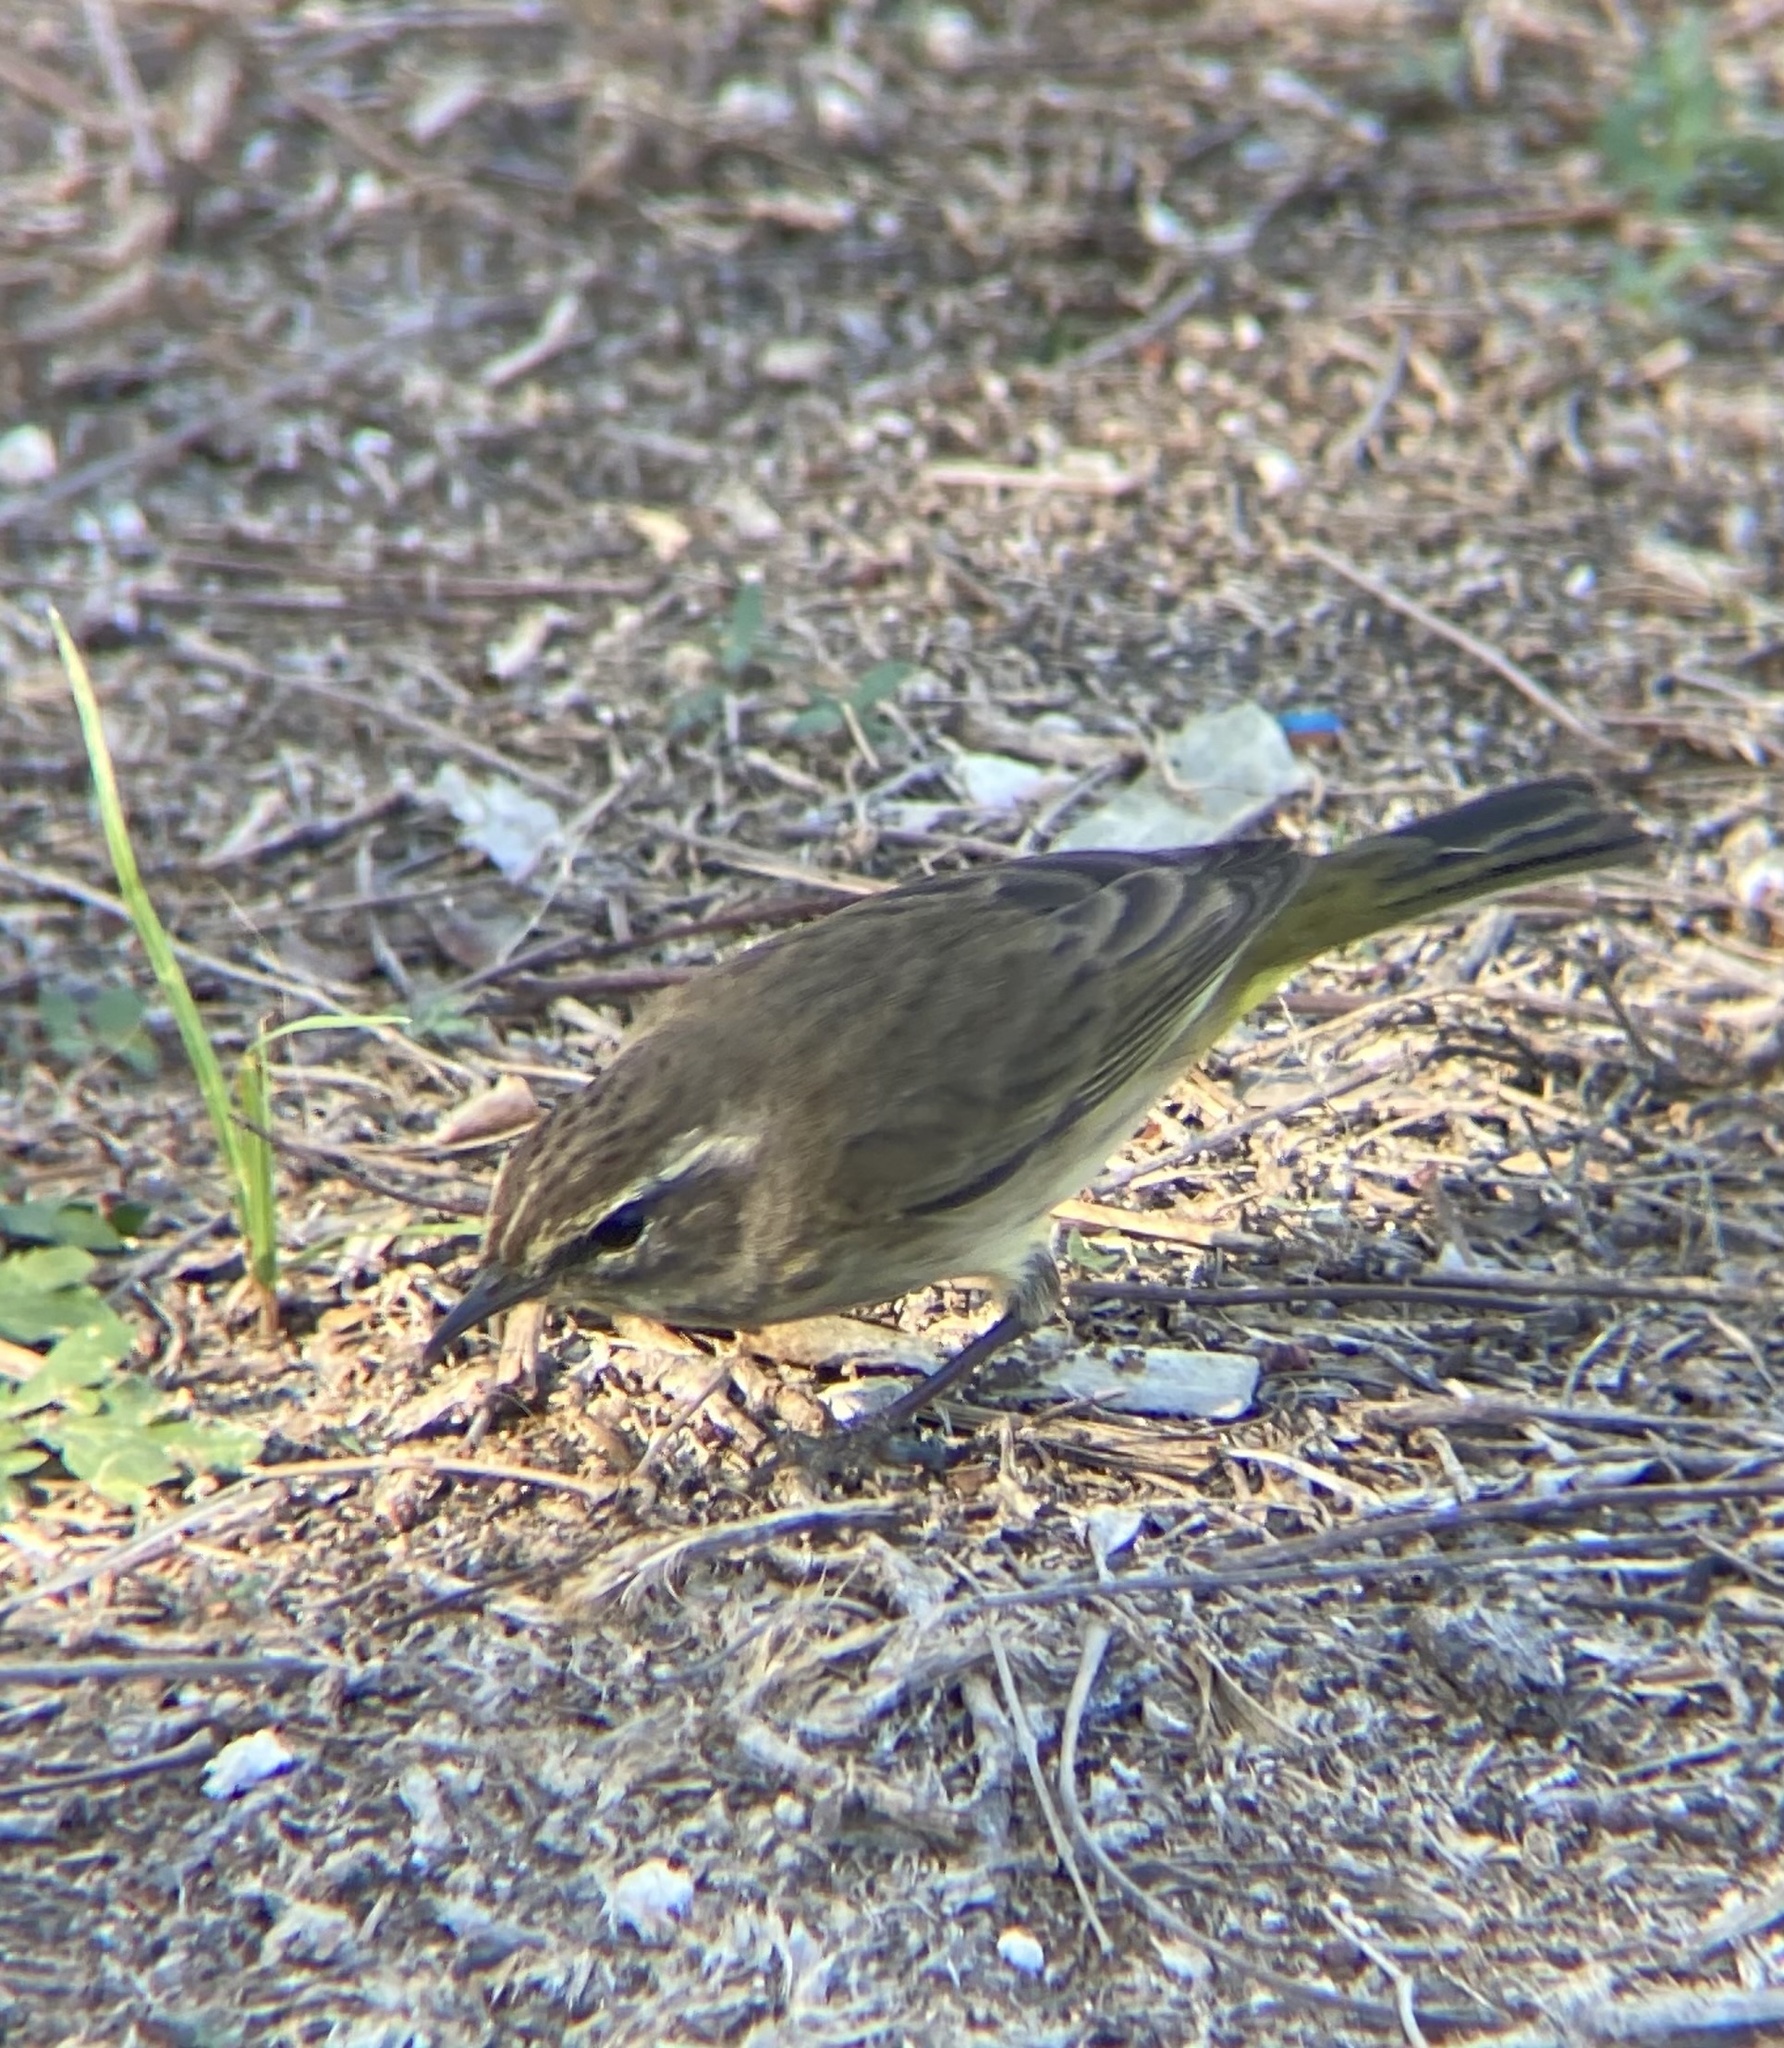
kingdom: Animalia
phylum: Chordata
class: Aves
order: Passeriformes
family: Parulidae
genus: Setophaga
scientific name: Setophaga palmarum
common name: Palm warbler
